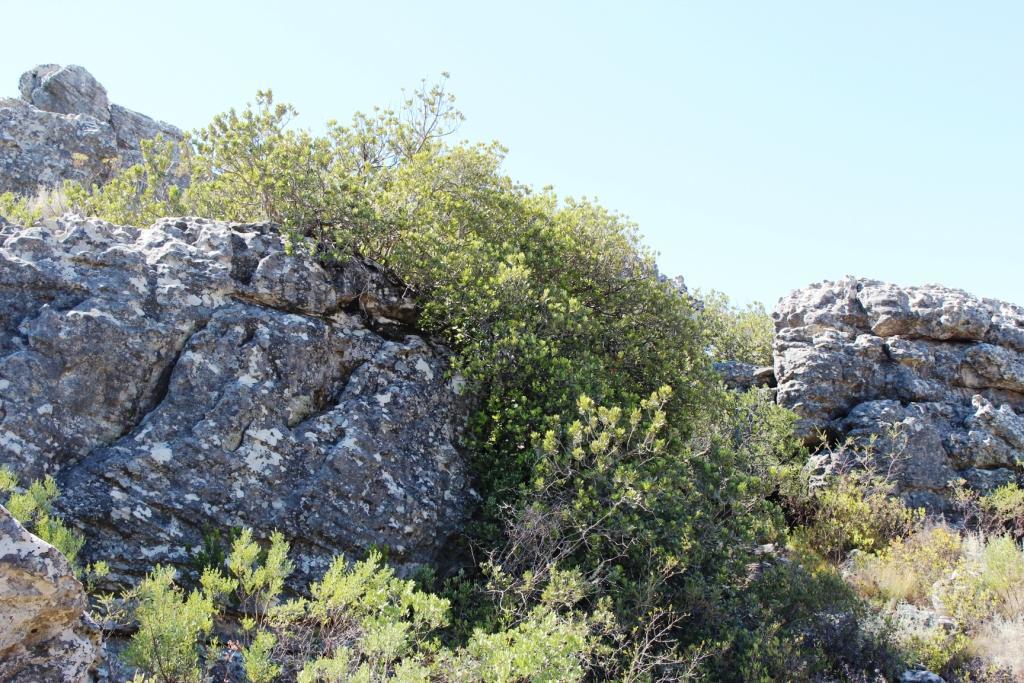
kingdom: Plantae
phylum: Tracheophyta
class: Magnoliopsida
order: Sapindales
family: Anacardiaceae
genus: Heeria
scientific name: Heeria argentea
